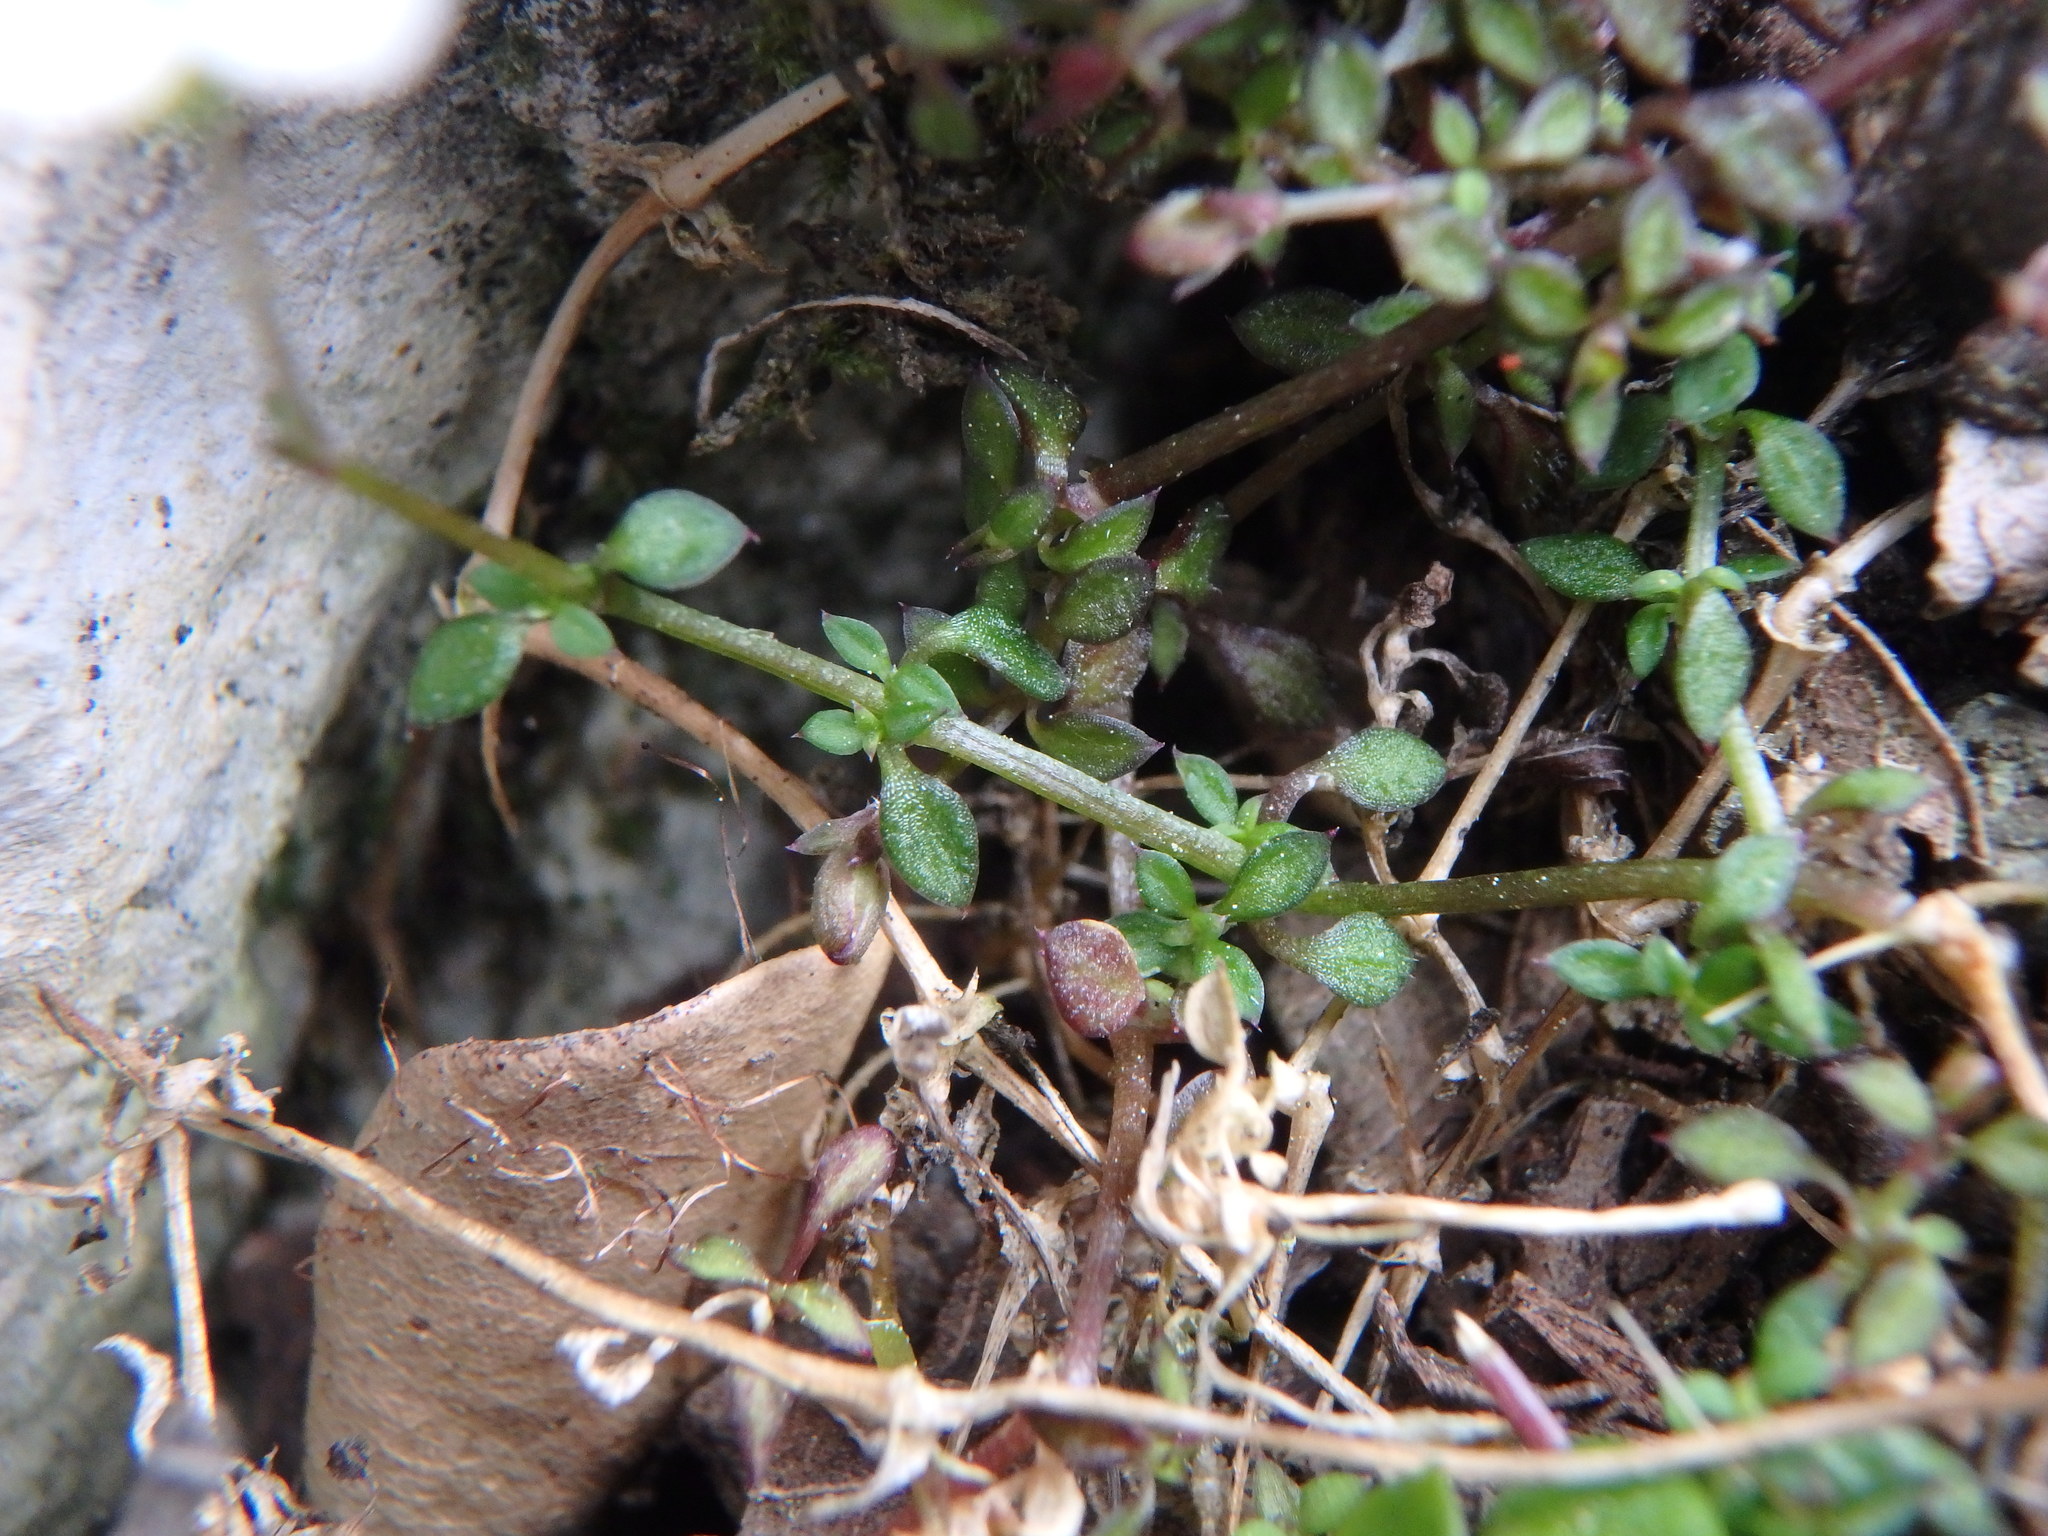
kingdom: Plantae
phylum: Tracheophyta
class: Magnoliopsida
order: Caryophyllales
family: Caryophyllaceae
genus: Arenaria
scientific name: Arenaria balearica
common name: Mossy sandwort
